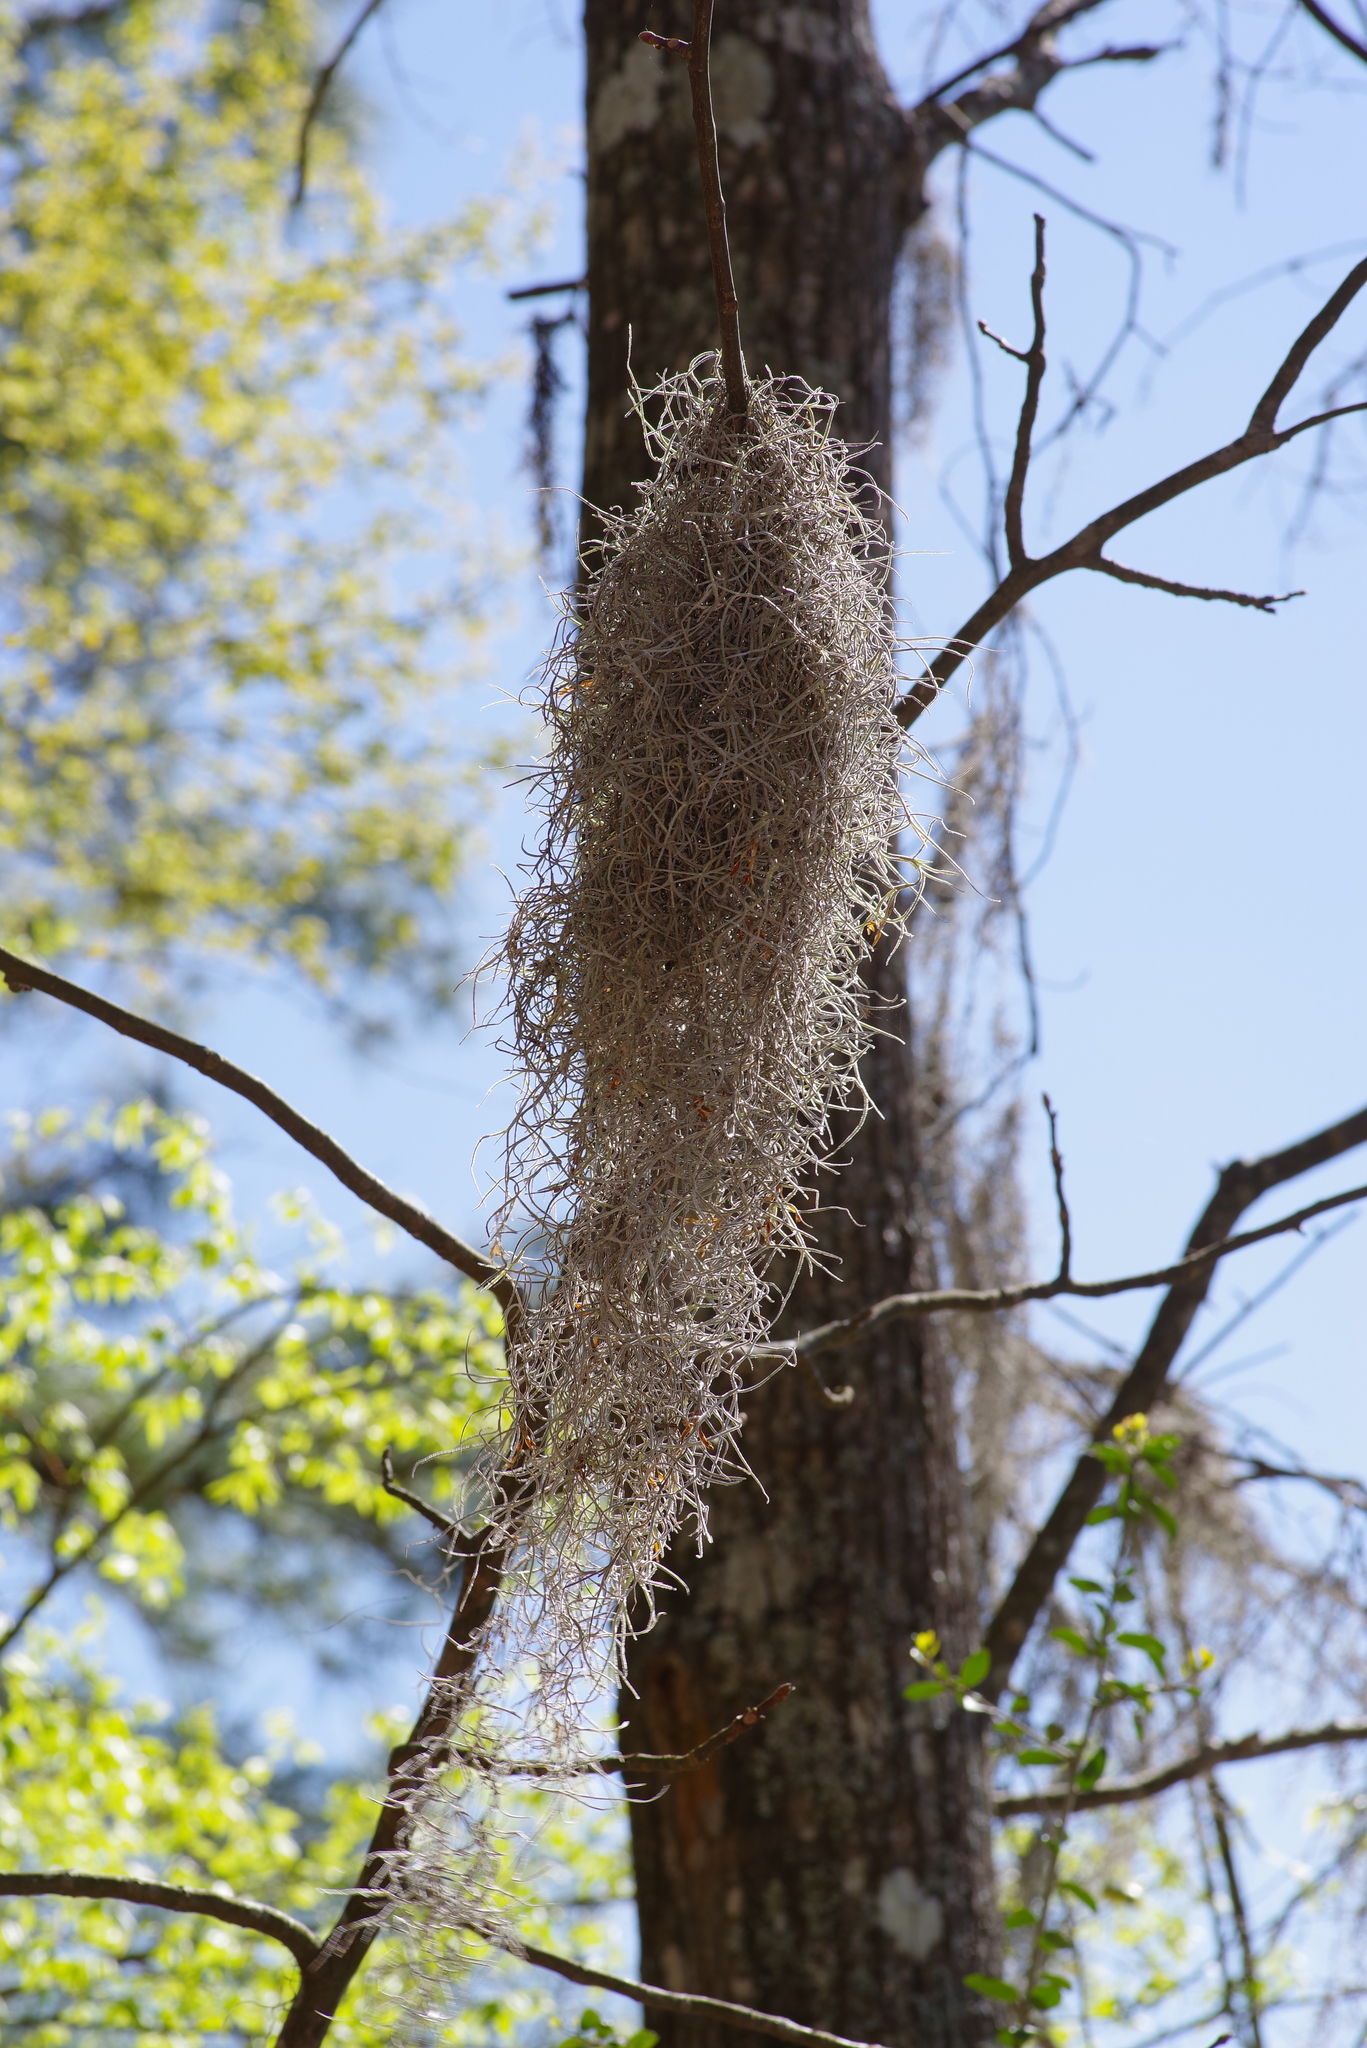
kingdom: Plantae
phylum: Tracheophyta
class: Liliopsida
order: Poales
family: Bromeliaceae
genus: Tillandsia
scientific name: Tillandsia usneoides
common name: Spanish moss
